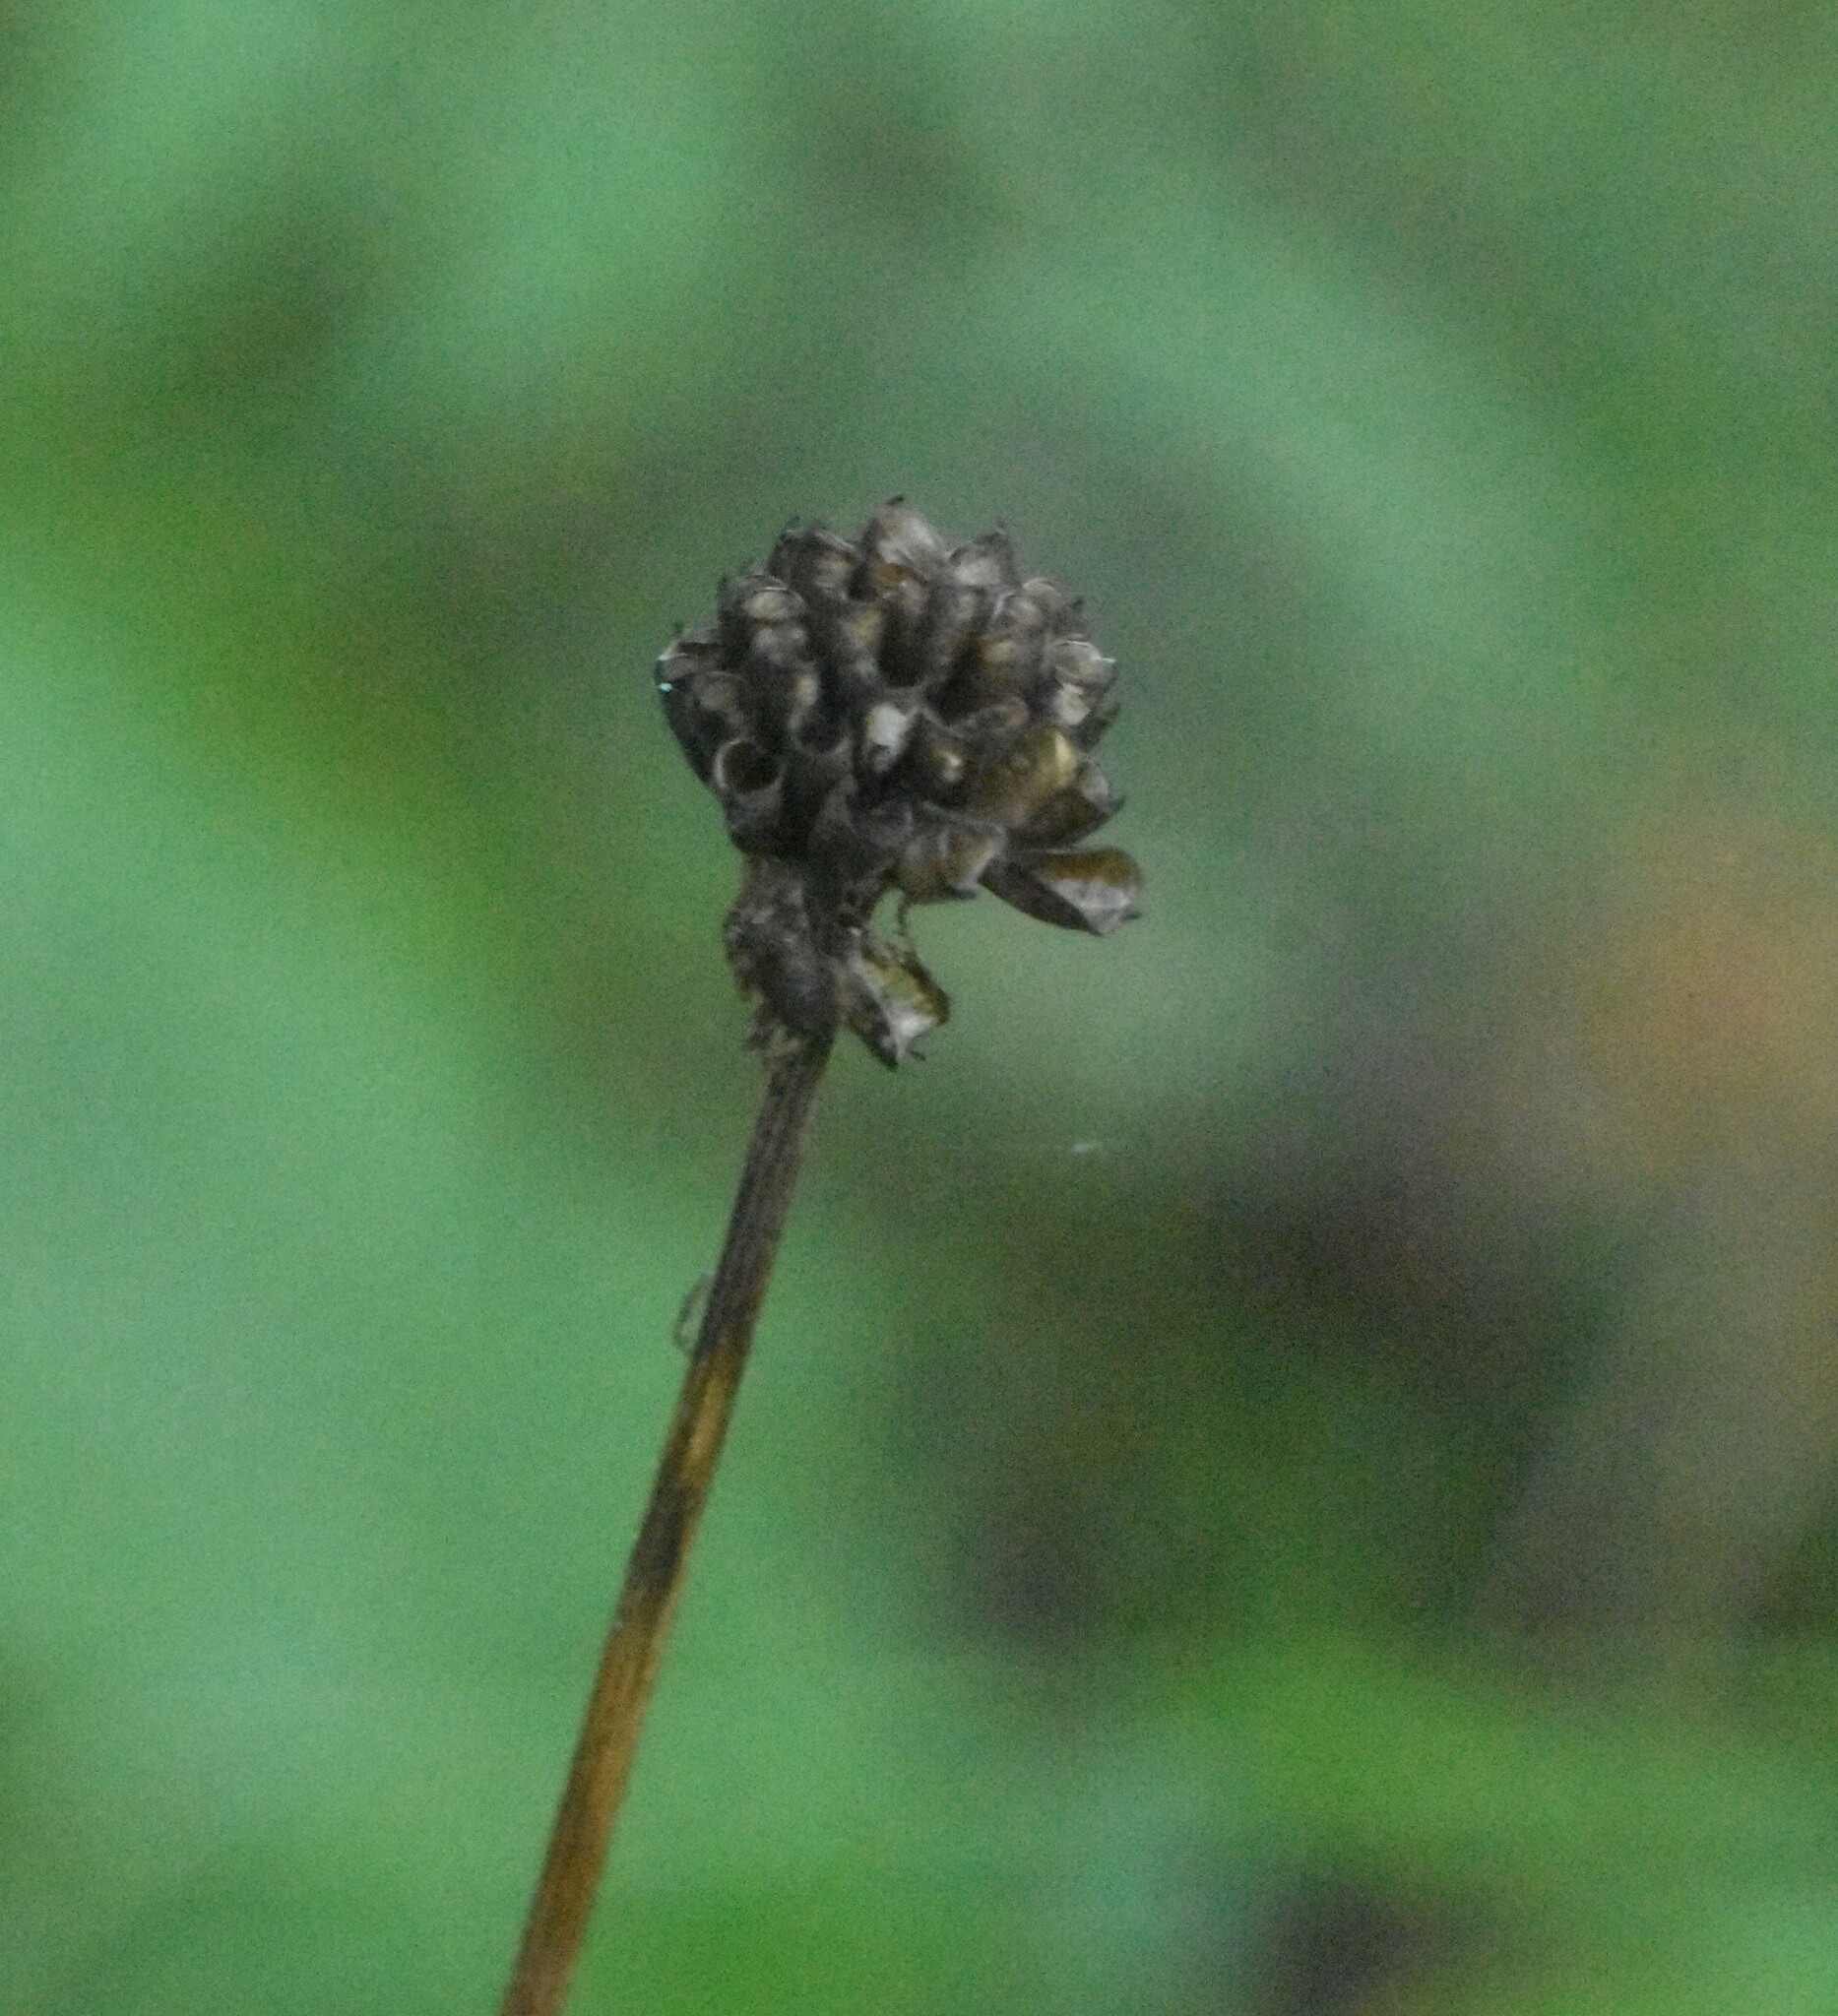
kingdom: Plantae
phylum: Tracheophyta
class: Magnoliopsida
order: Ranunculales
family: Ranunculaceae
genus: Trollius
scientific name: Trollius europaeus
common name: European globeflower
